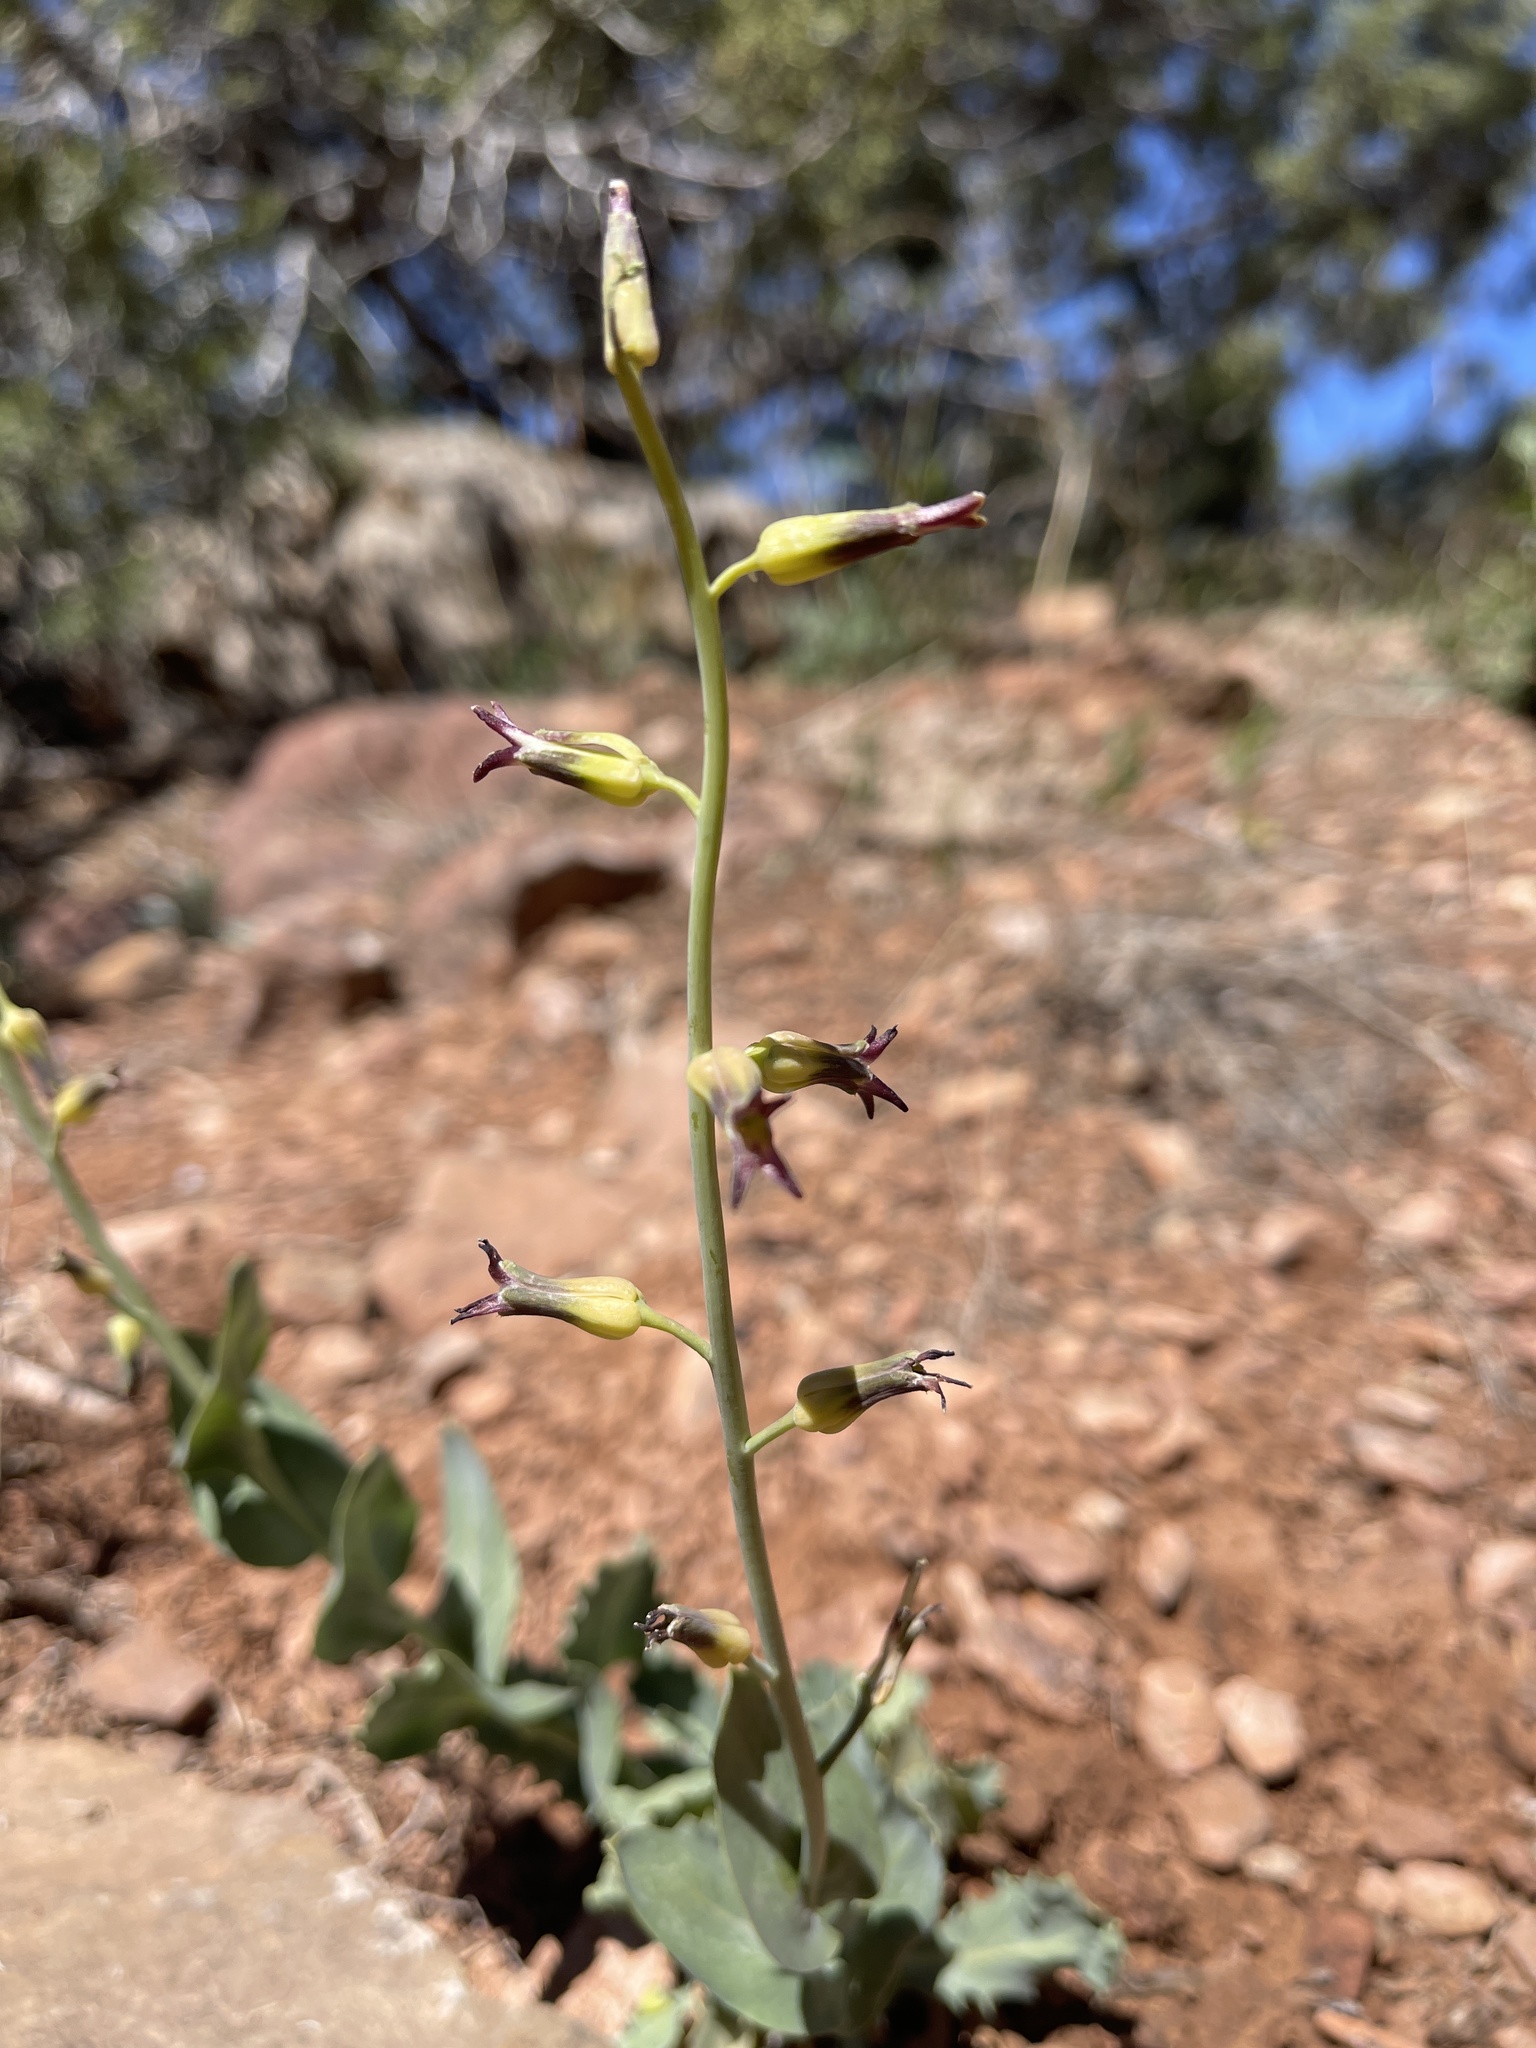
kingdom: Plantae
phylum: Tracheophyta
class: Magnoliopsida
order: Brassicales
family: Brassicaceae
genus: Streptanthus
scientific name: Streptanthus cordatus
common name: Heart-leaf jewel-flower
